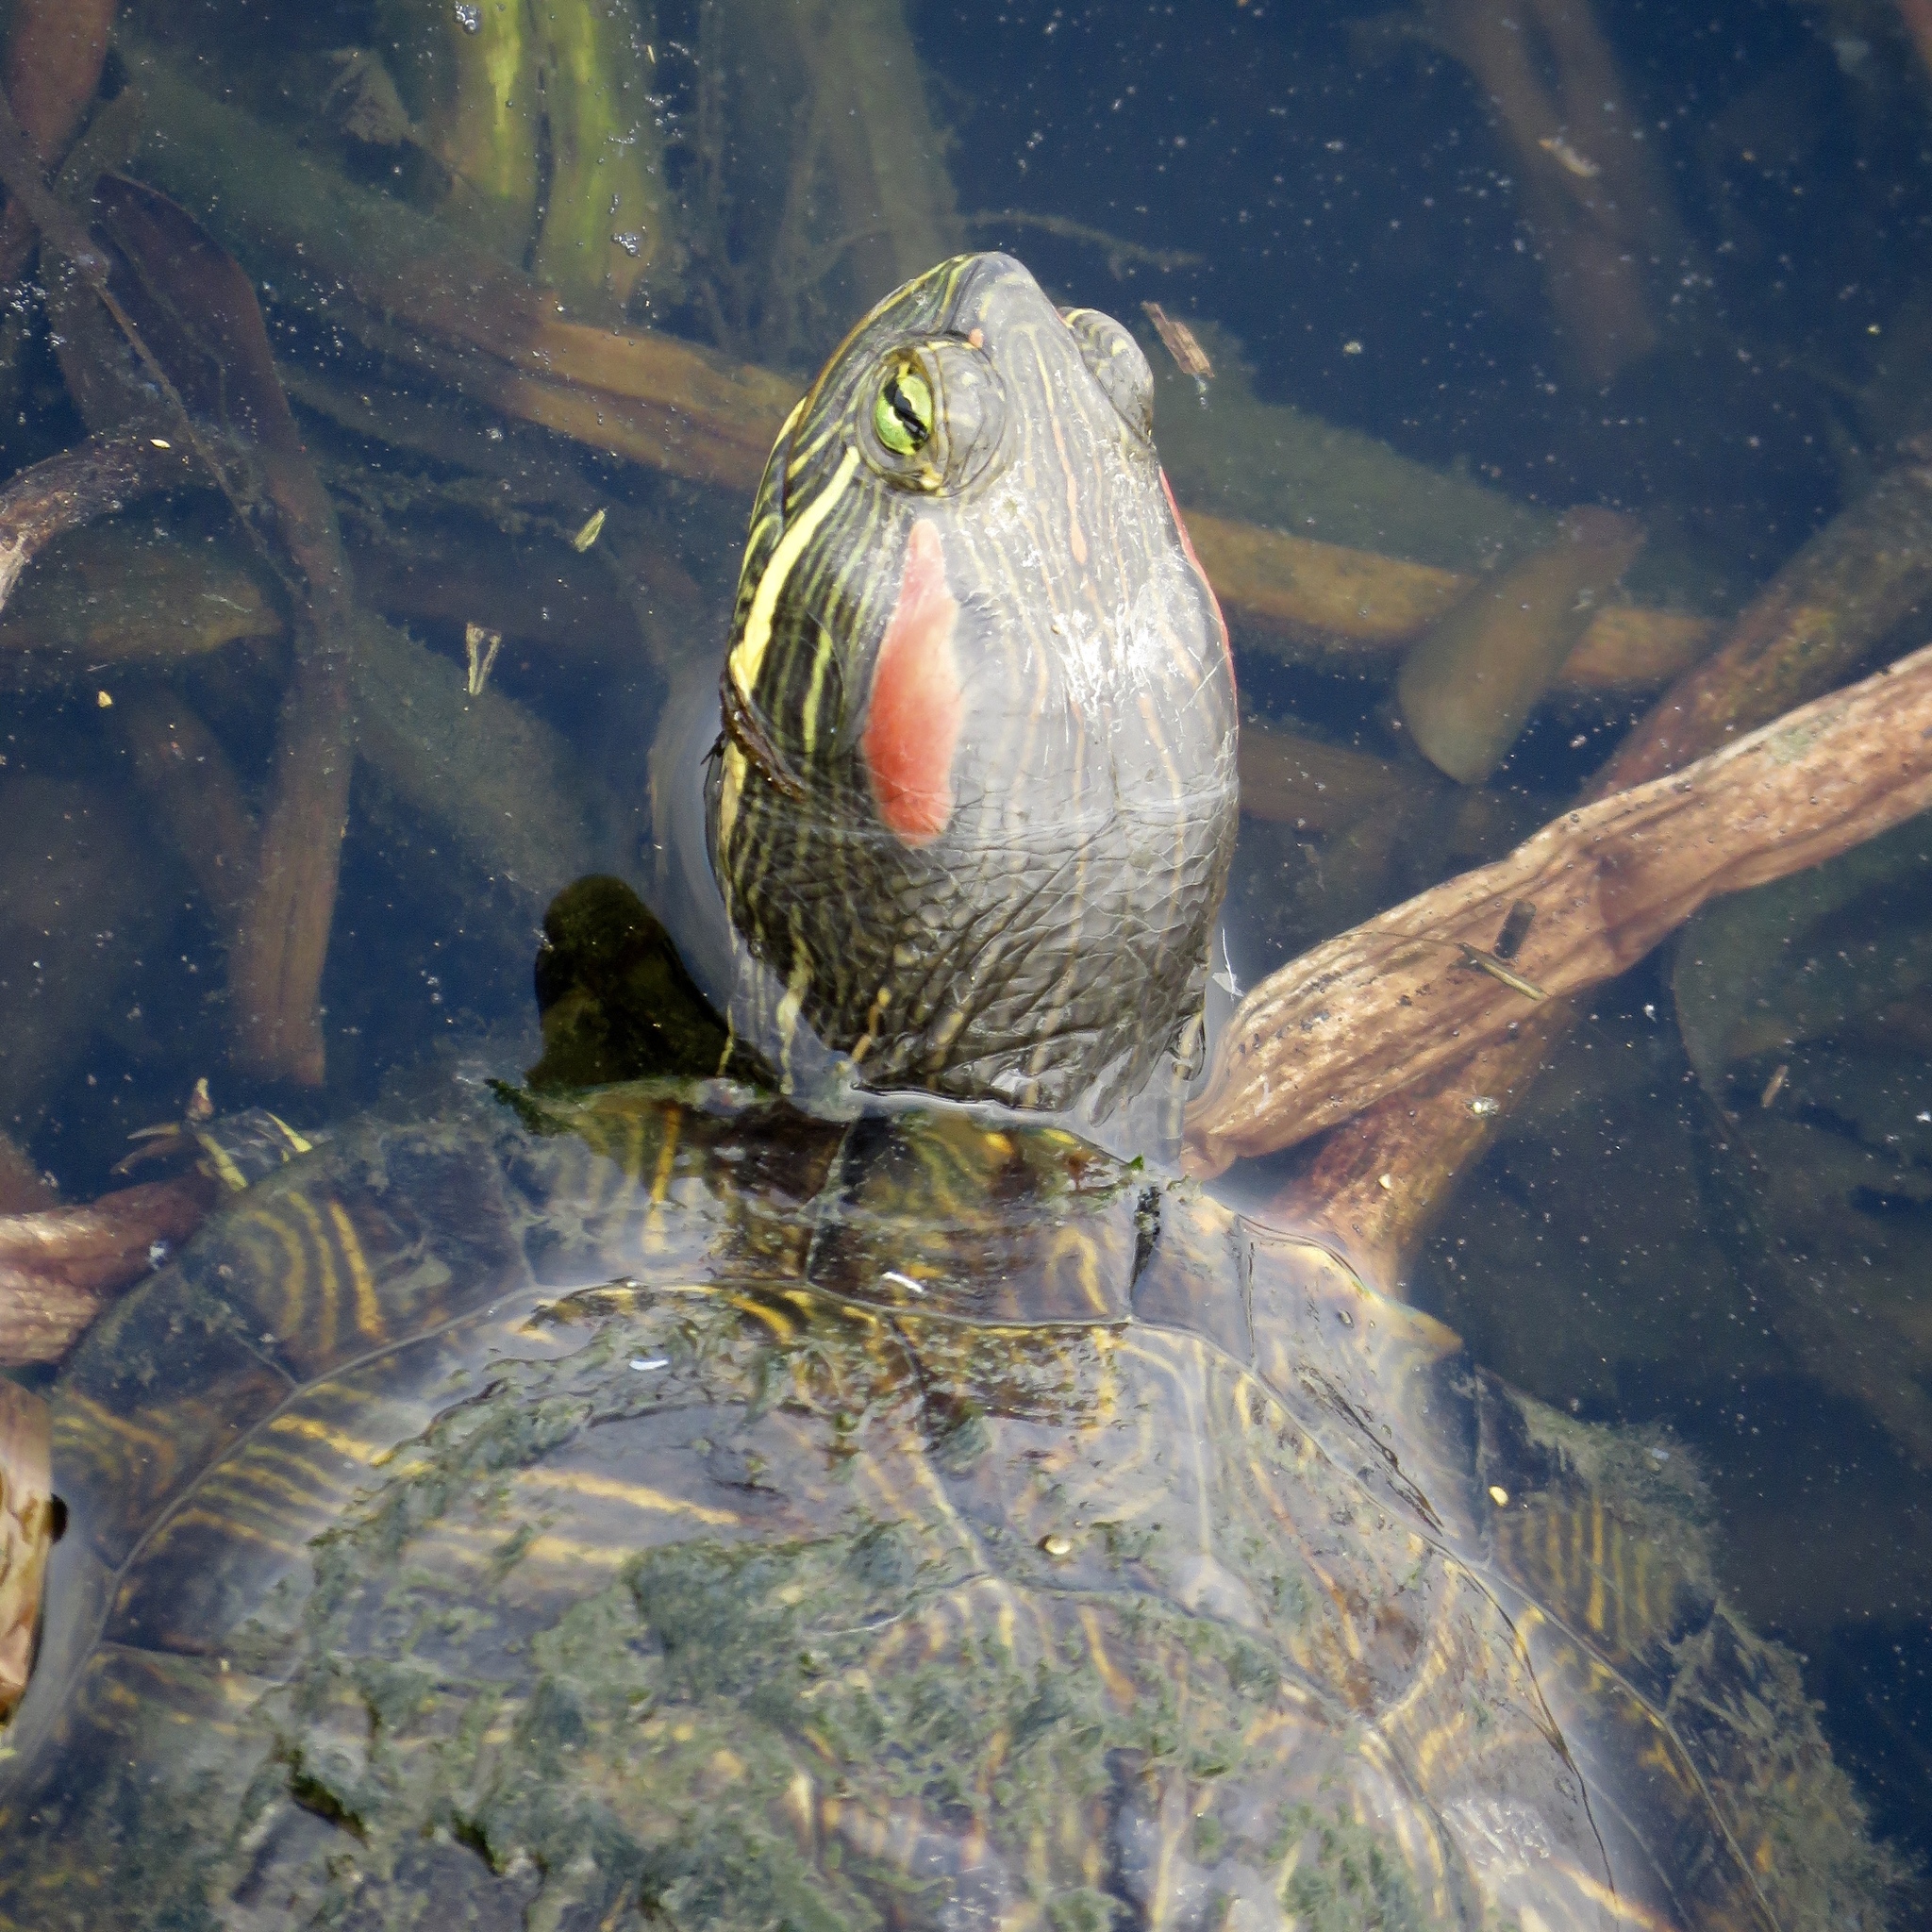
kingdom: Animalia
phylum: Chordata
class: Testudines
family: Emydidae
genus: Trachemys
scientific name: Trachemys scripta
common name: Slider
